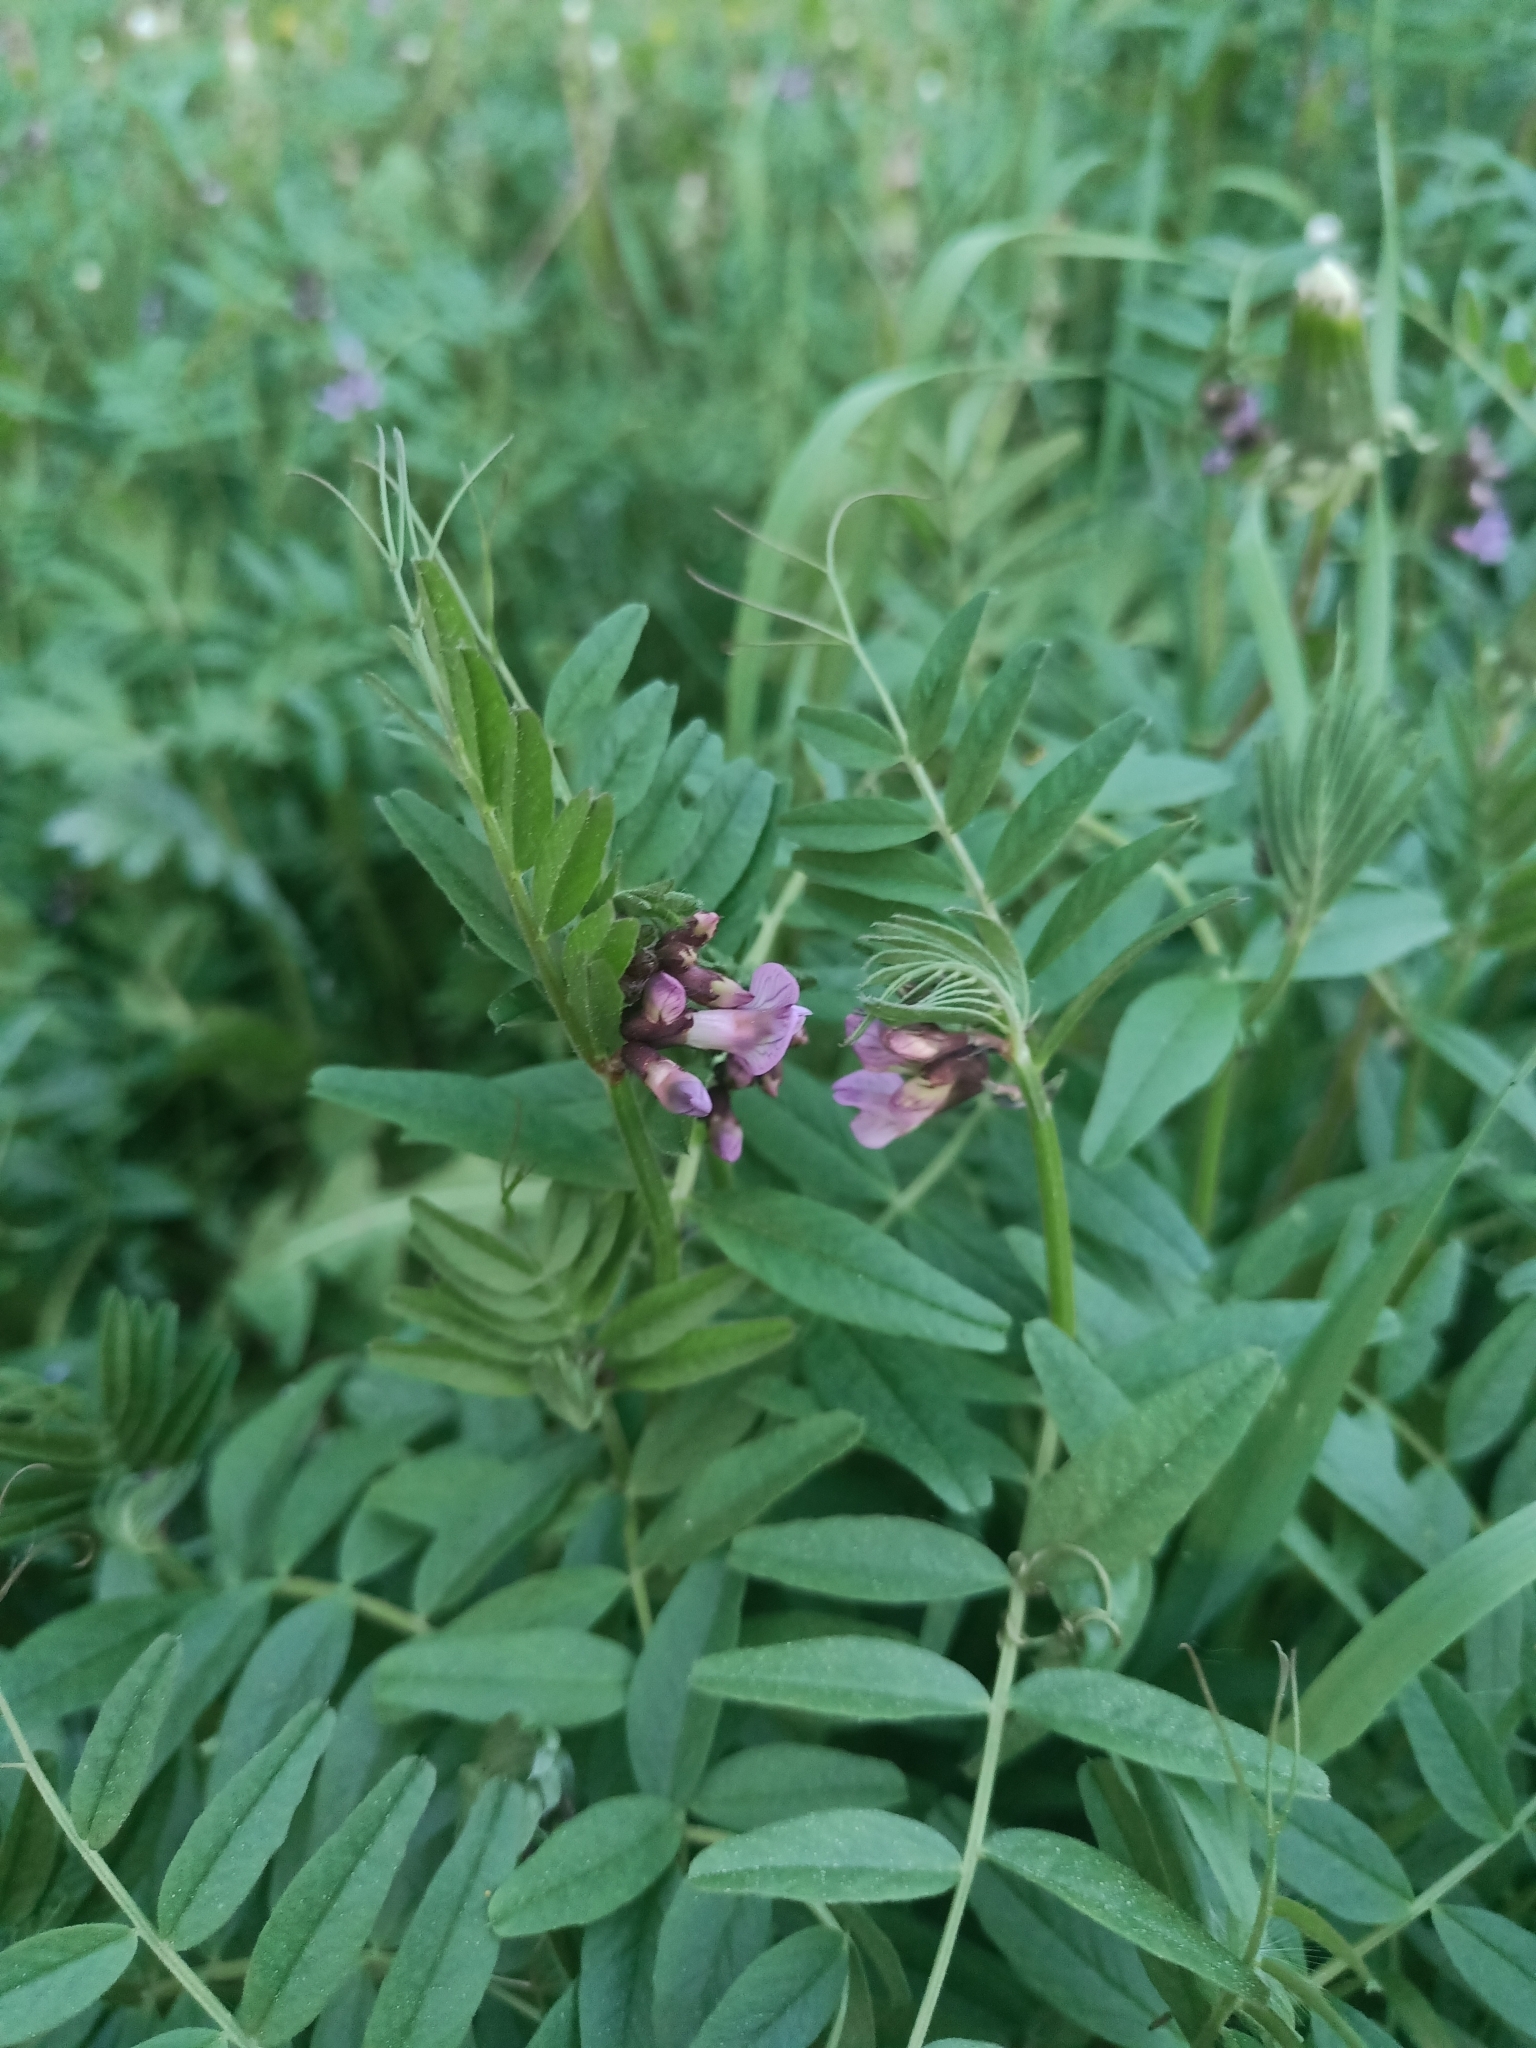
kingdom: Plantae
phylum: Tracheophyta
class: Magnoliopsida
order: Fabales
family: Fabaceae
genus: Vicia
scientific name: Vicia sepium
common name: Bush vetch
